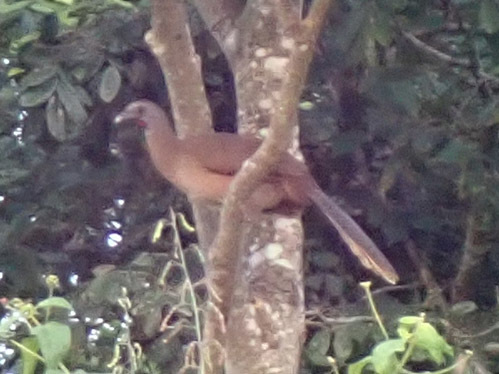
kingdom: Animalia
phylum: Chordata
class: Aves
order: Galliformes
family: Cracidae
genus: Ortalis
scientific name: Ortalis vetula
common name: Plain chachalaca
